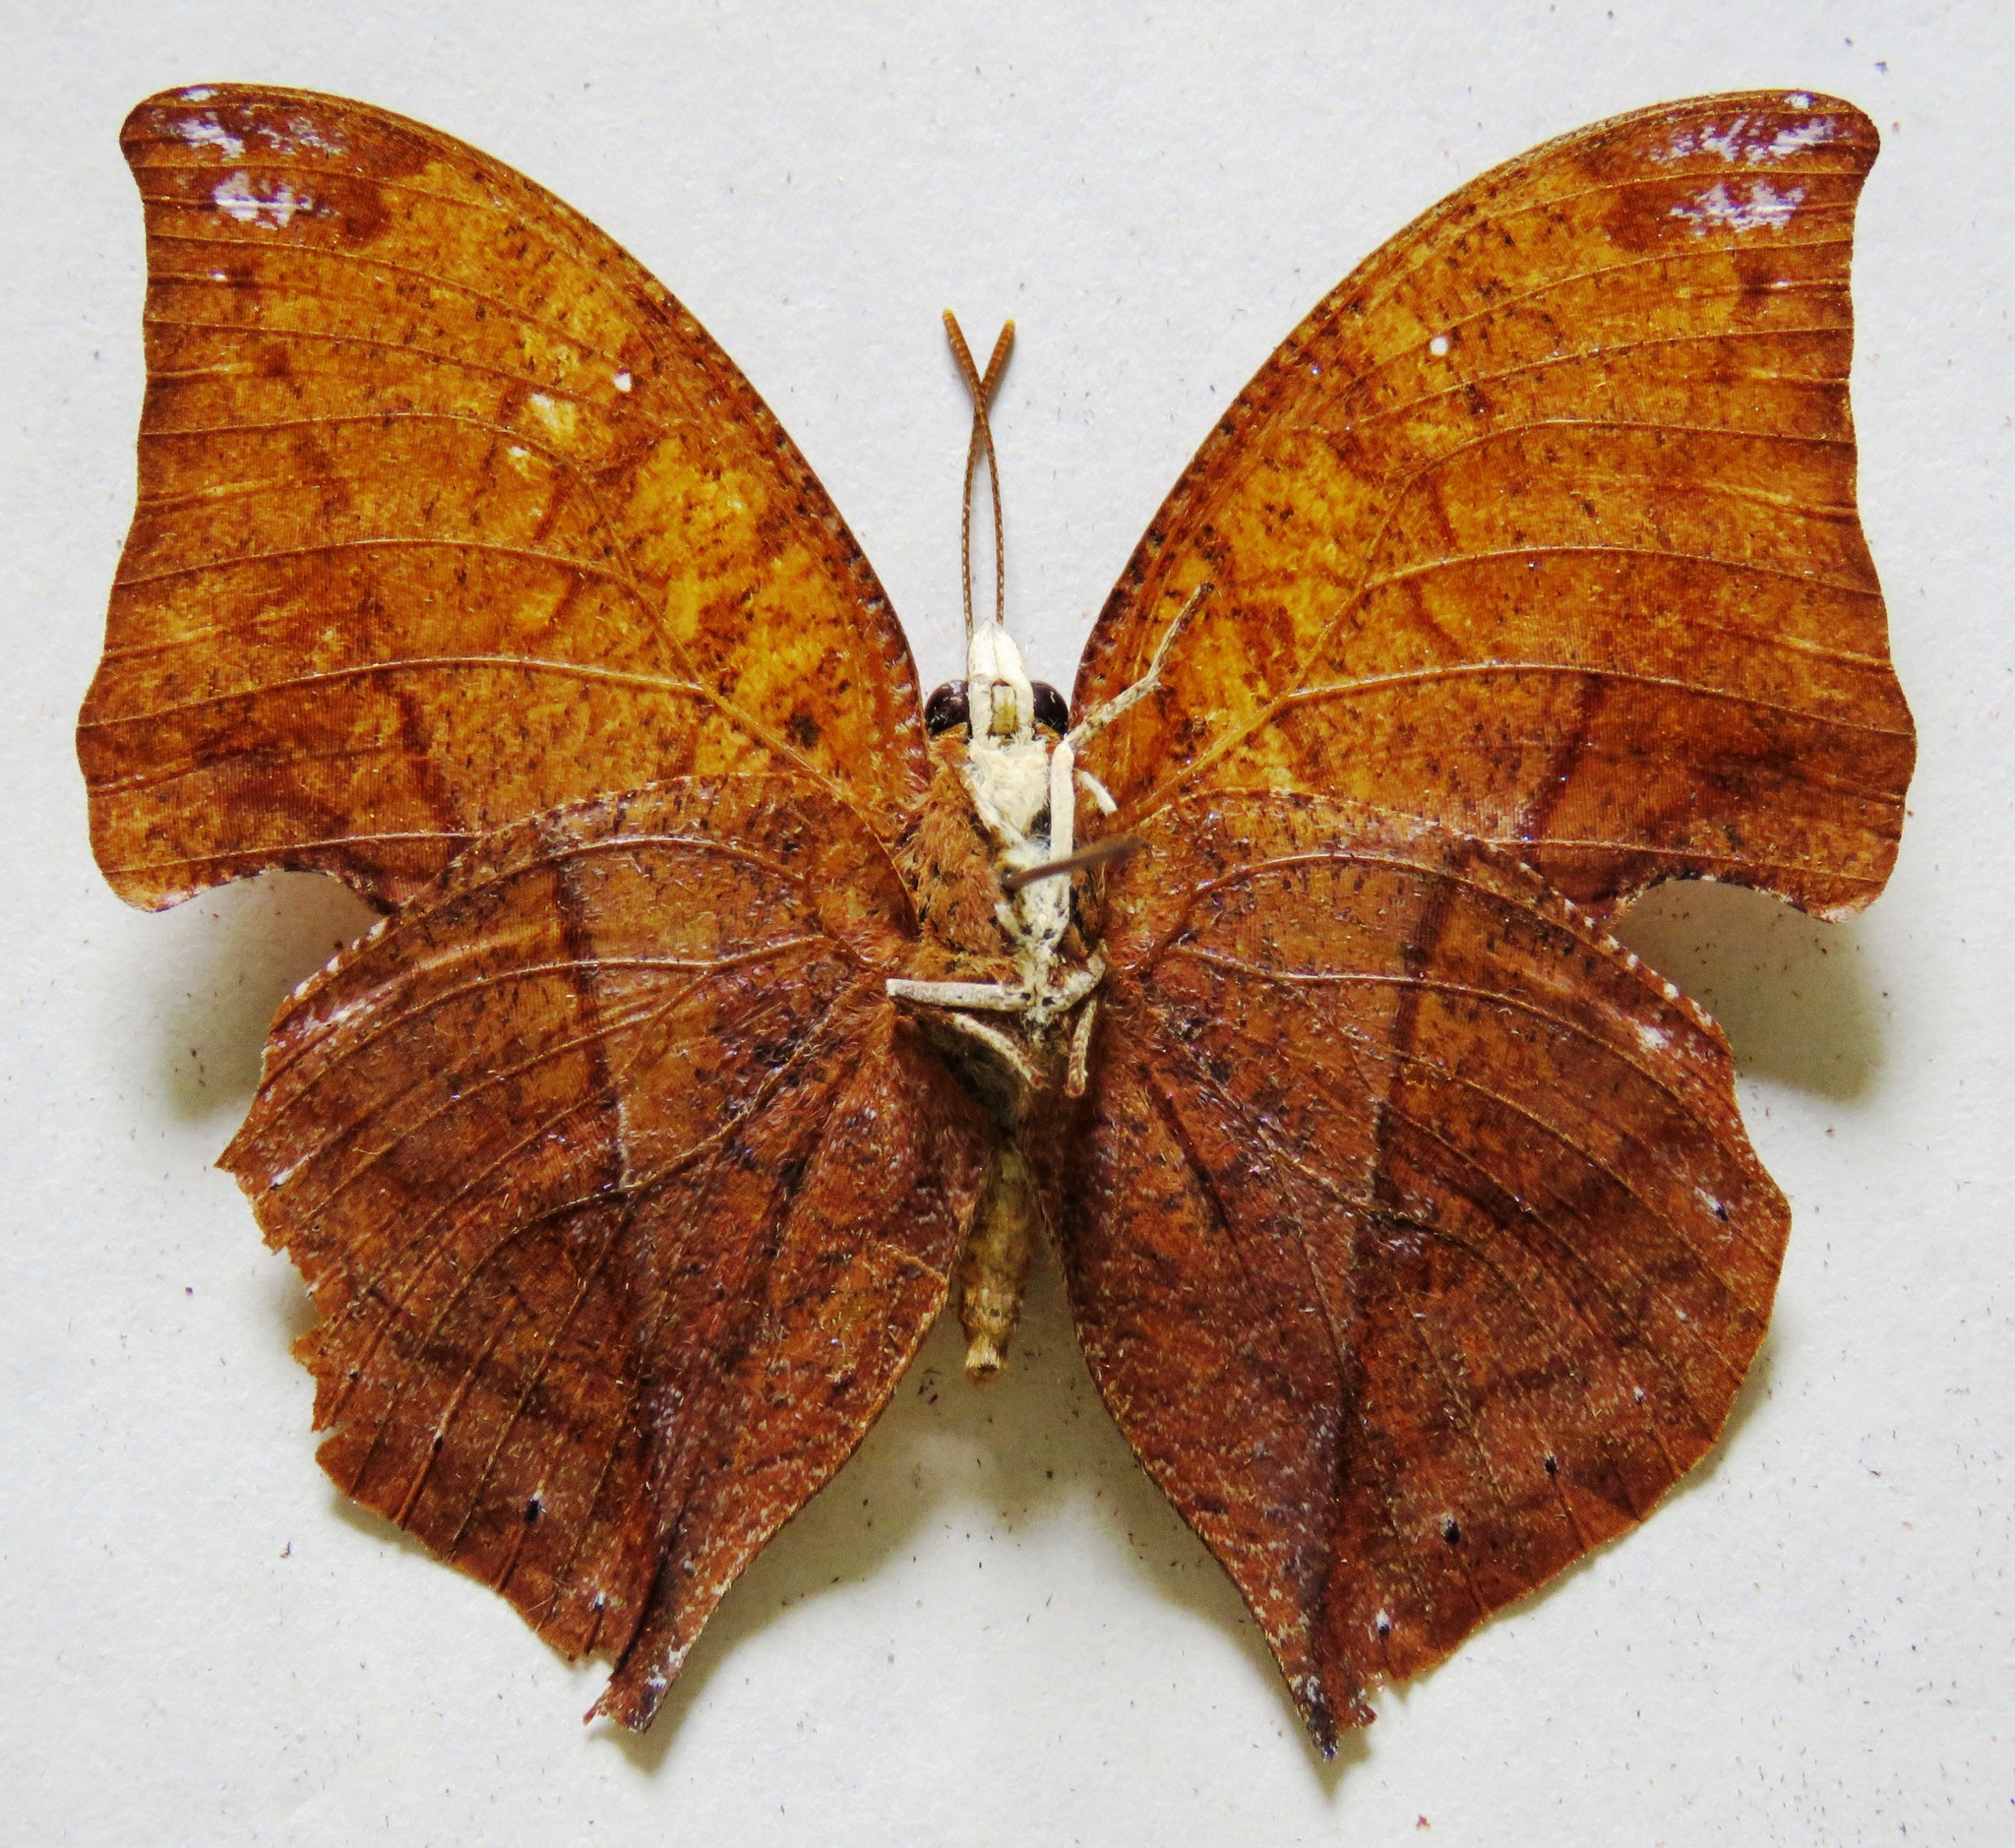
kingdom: Animalia
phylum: Arthropoda
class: Insecta
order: Lepidoptera
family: Nymphalidae
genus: Zaretis
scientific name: Zaretis itys
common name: Skeletonized leafwing
